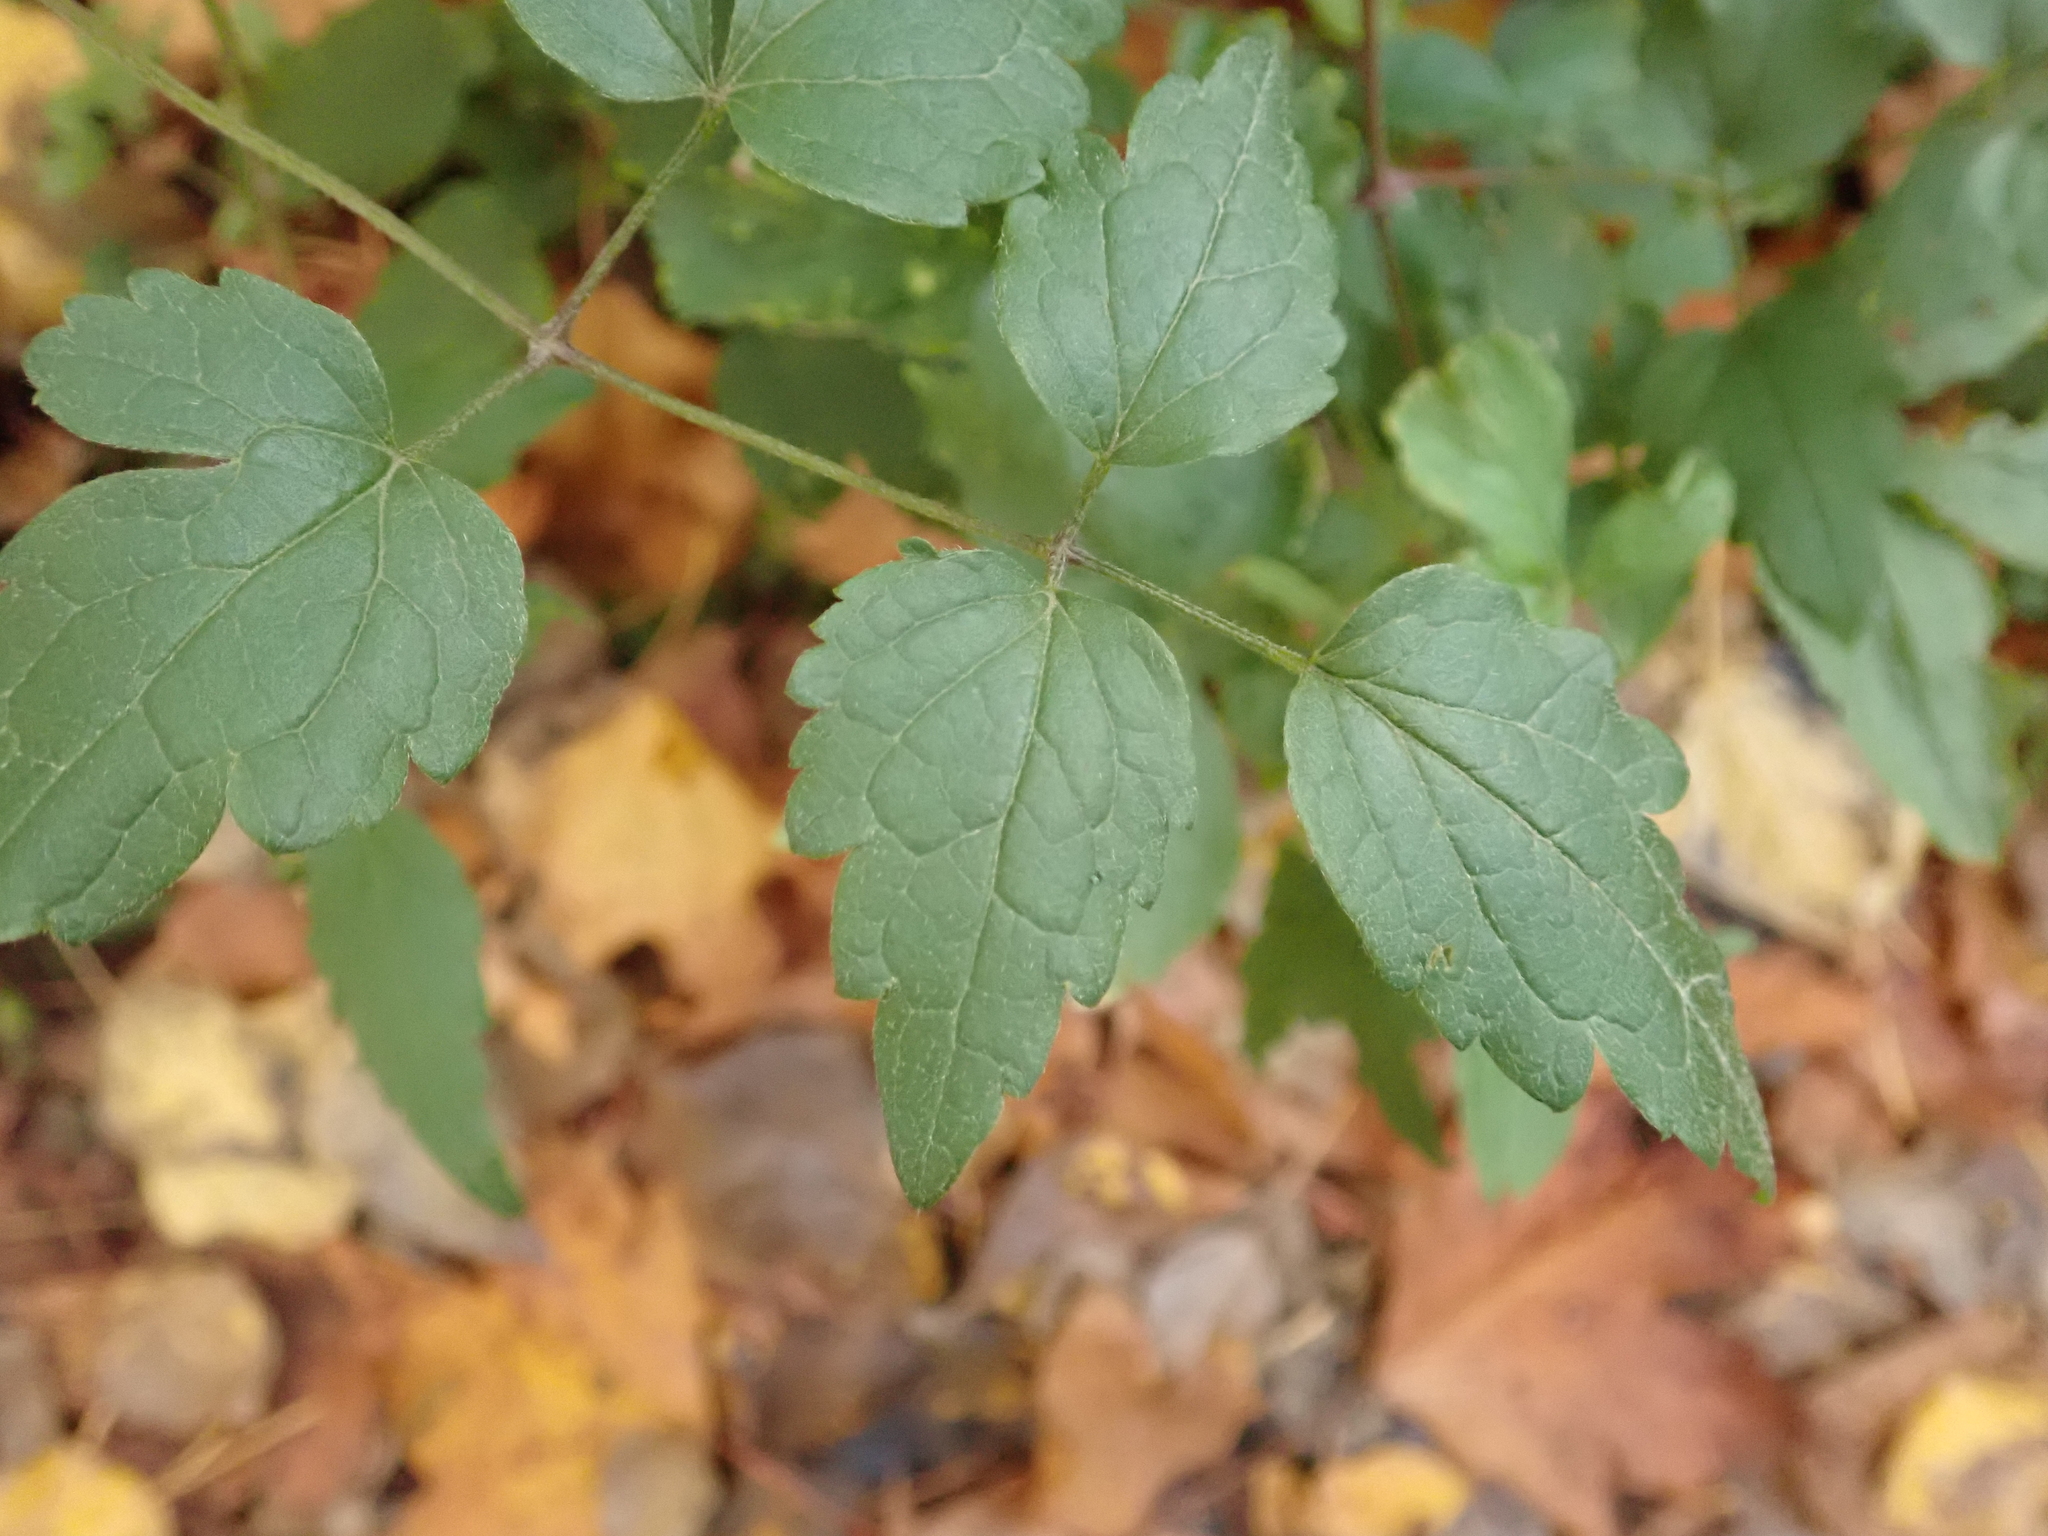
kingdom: Plantae
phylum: Tracheophyta
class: Magnoliopsida
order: Ranunculales
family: Ranunculaceae
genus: Clematis
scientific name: Clematis vitalba
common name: Evergreen clematis
